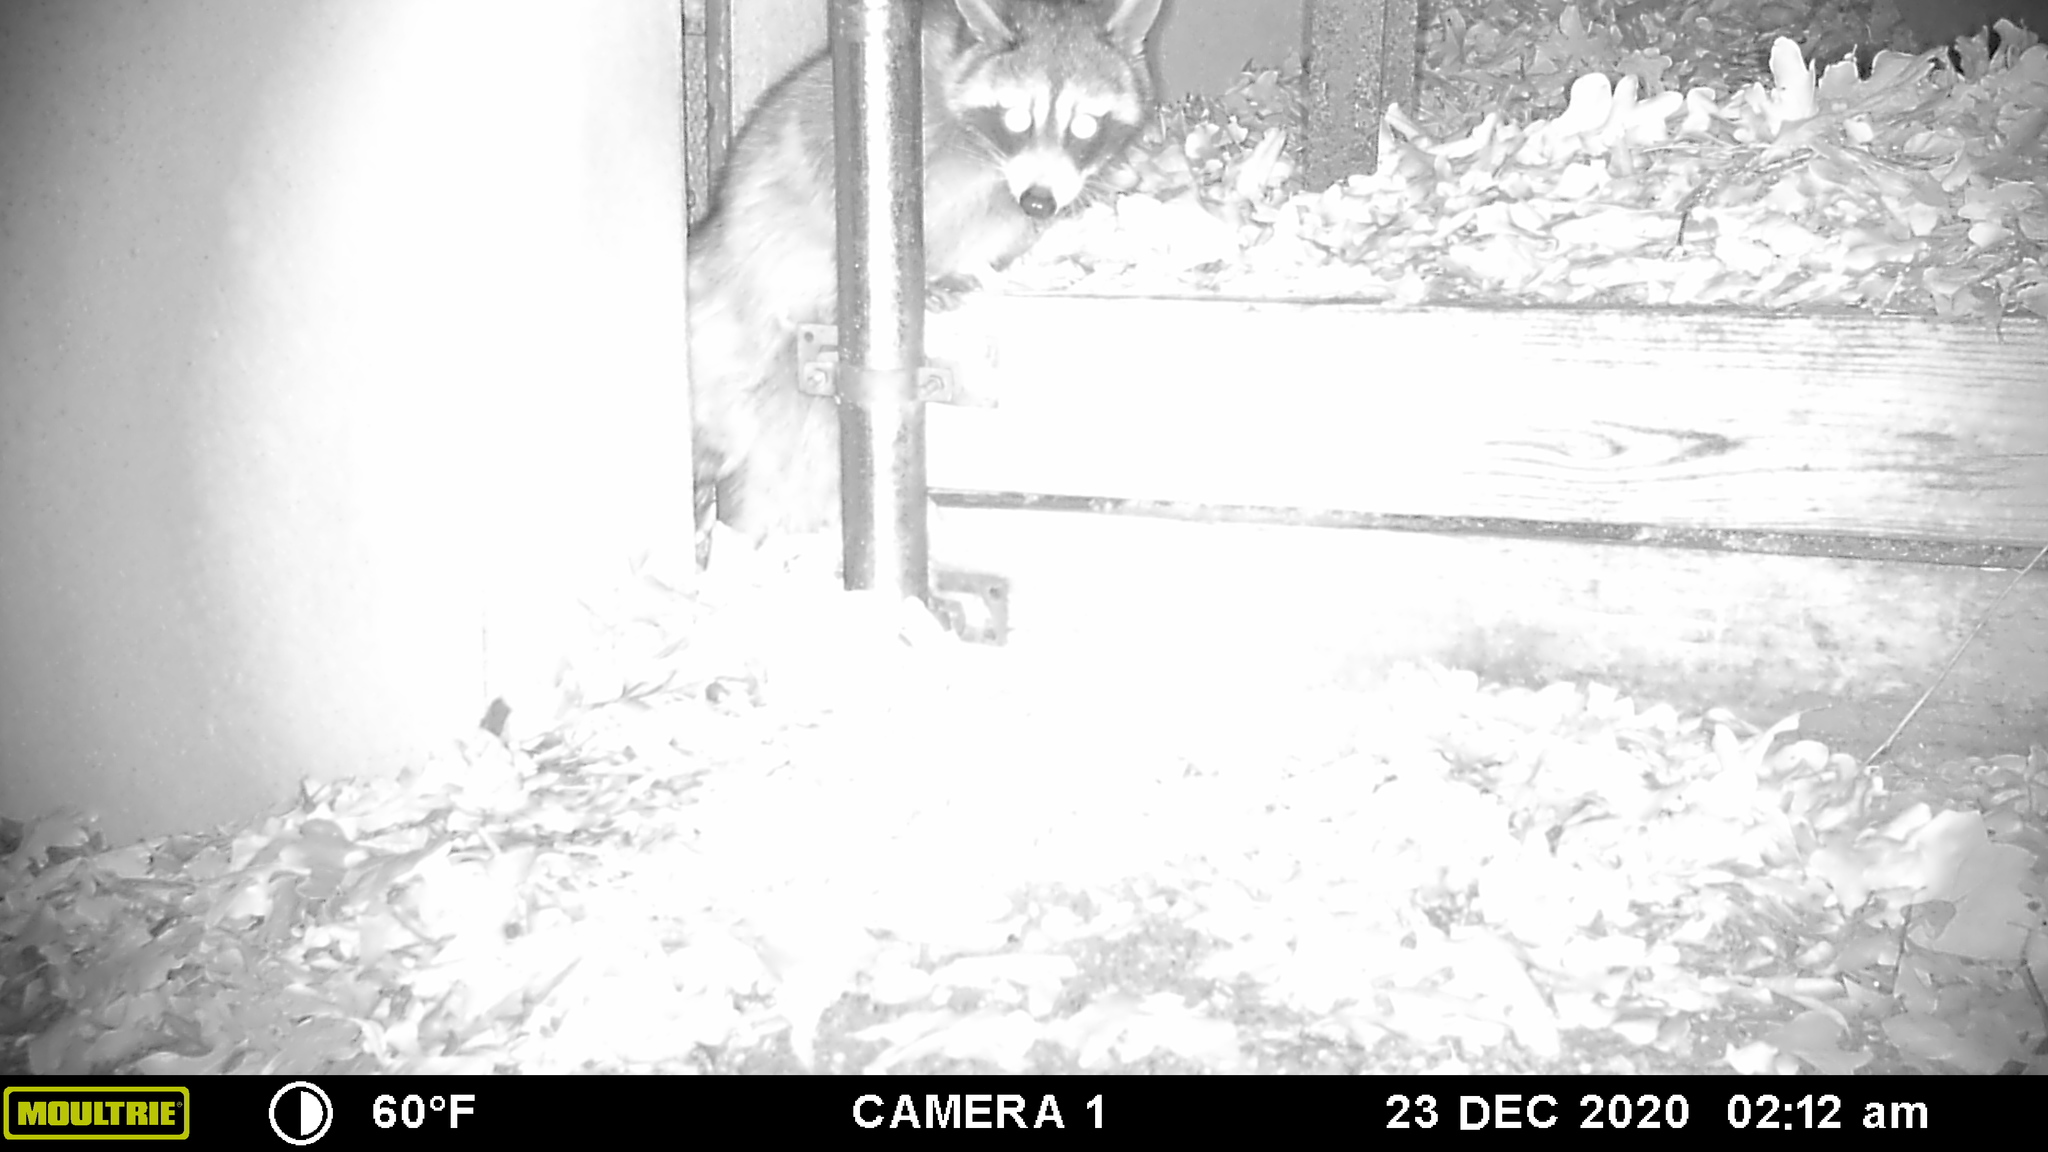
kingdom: Animalia
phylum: Chordata
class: Mammalia
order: Carnivora
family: Procyonidae
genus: Procyon
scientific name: Procyon lotor
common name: Raccoon
